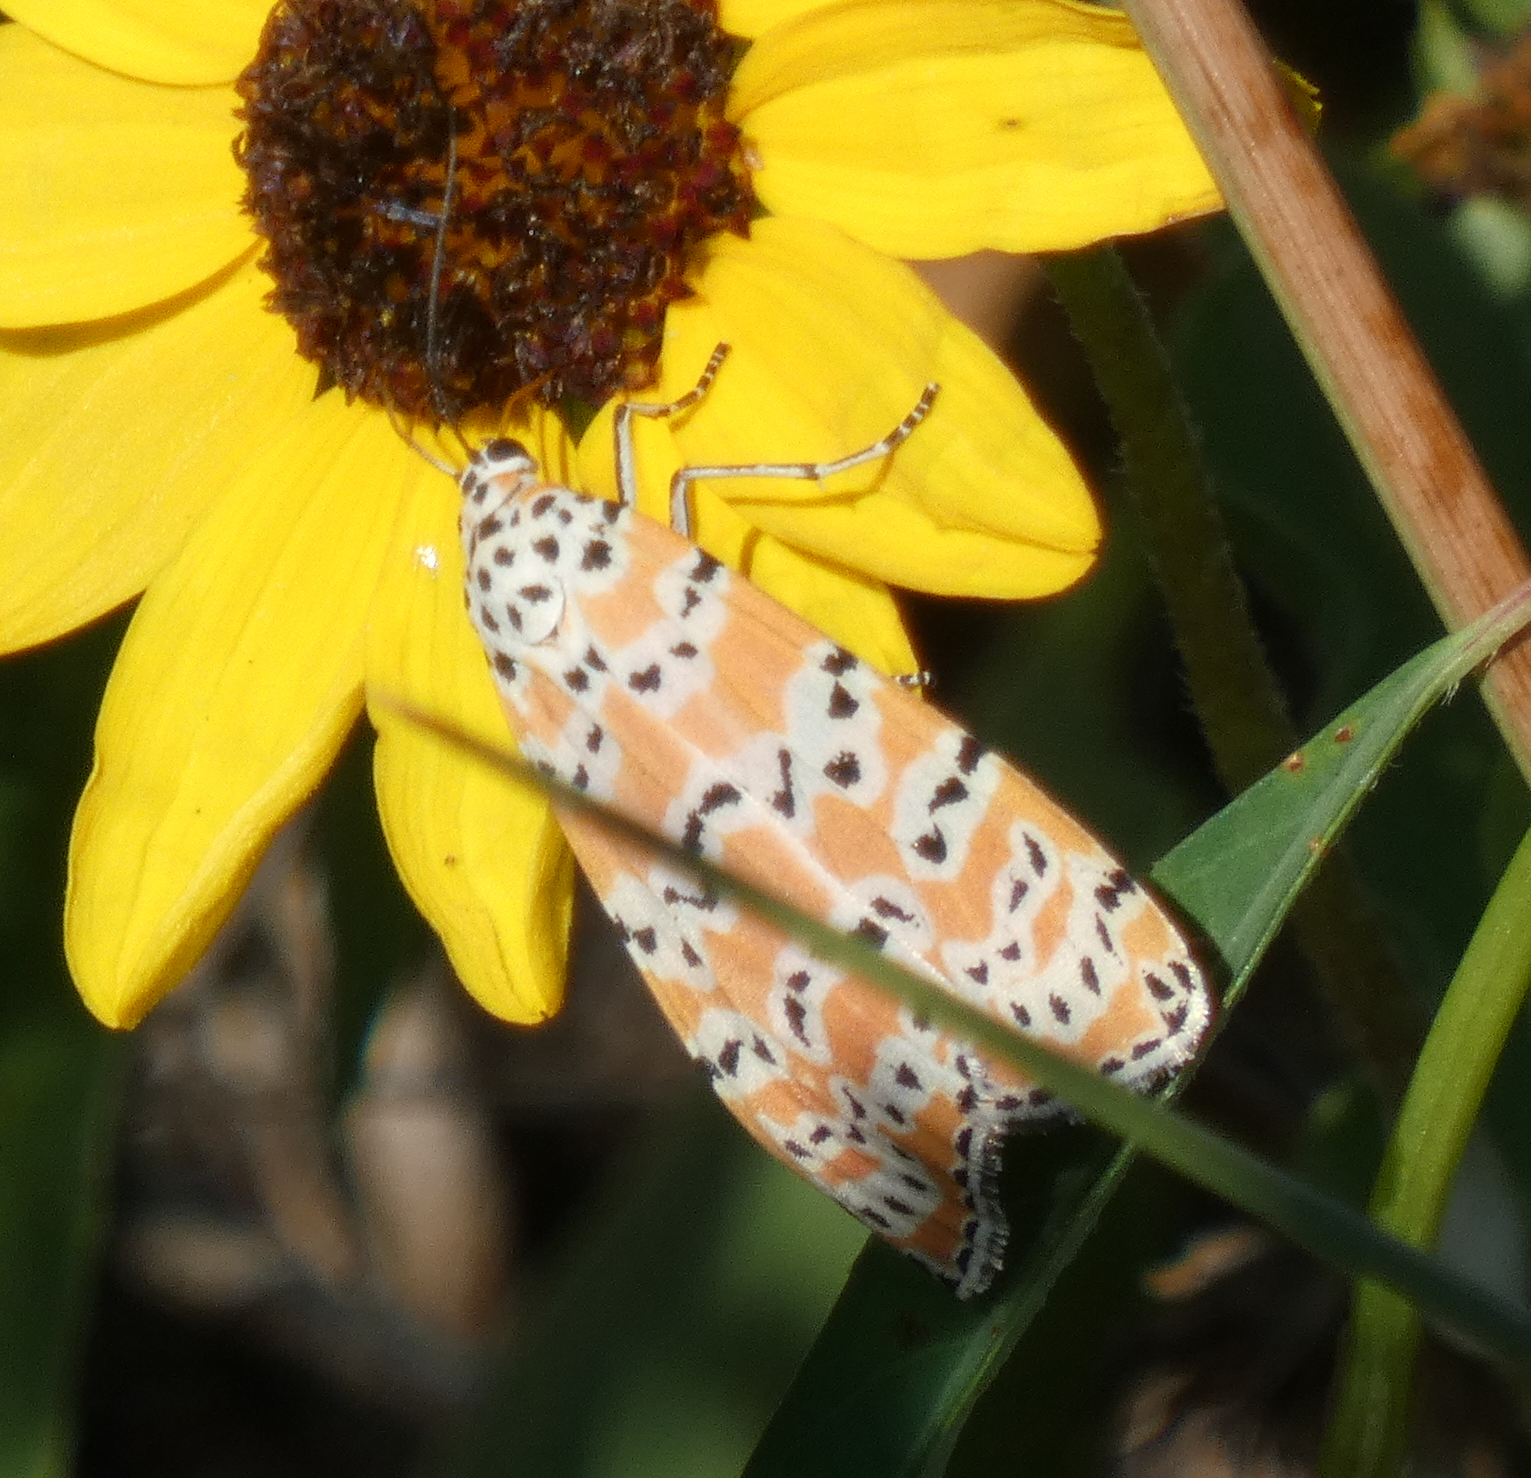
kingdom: Animalia
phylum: Arthropoda
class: Insecta
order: Lepidoptera
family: Erebidae
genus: Utetheisa
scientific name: Utetheisa ornatrix
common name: Beautiful utetheisa
